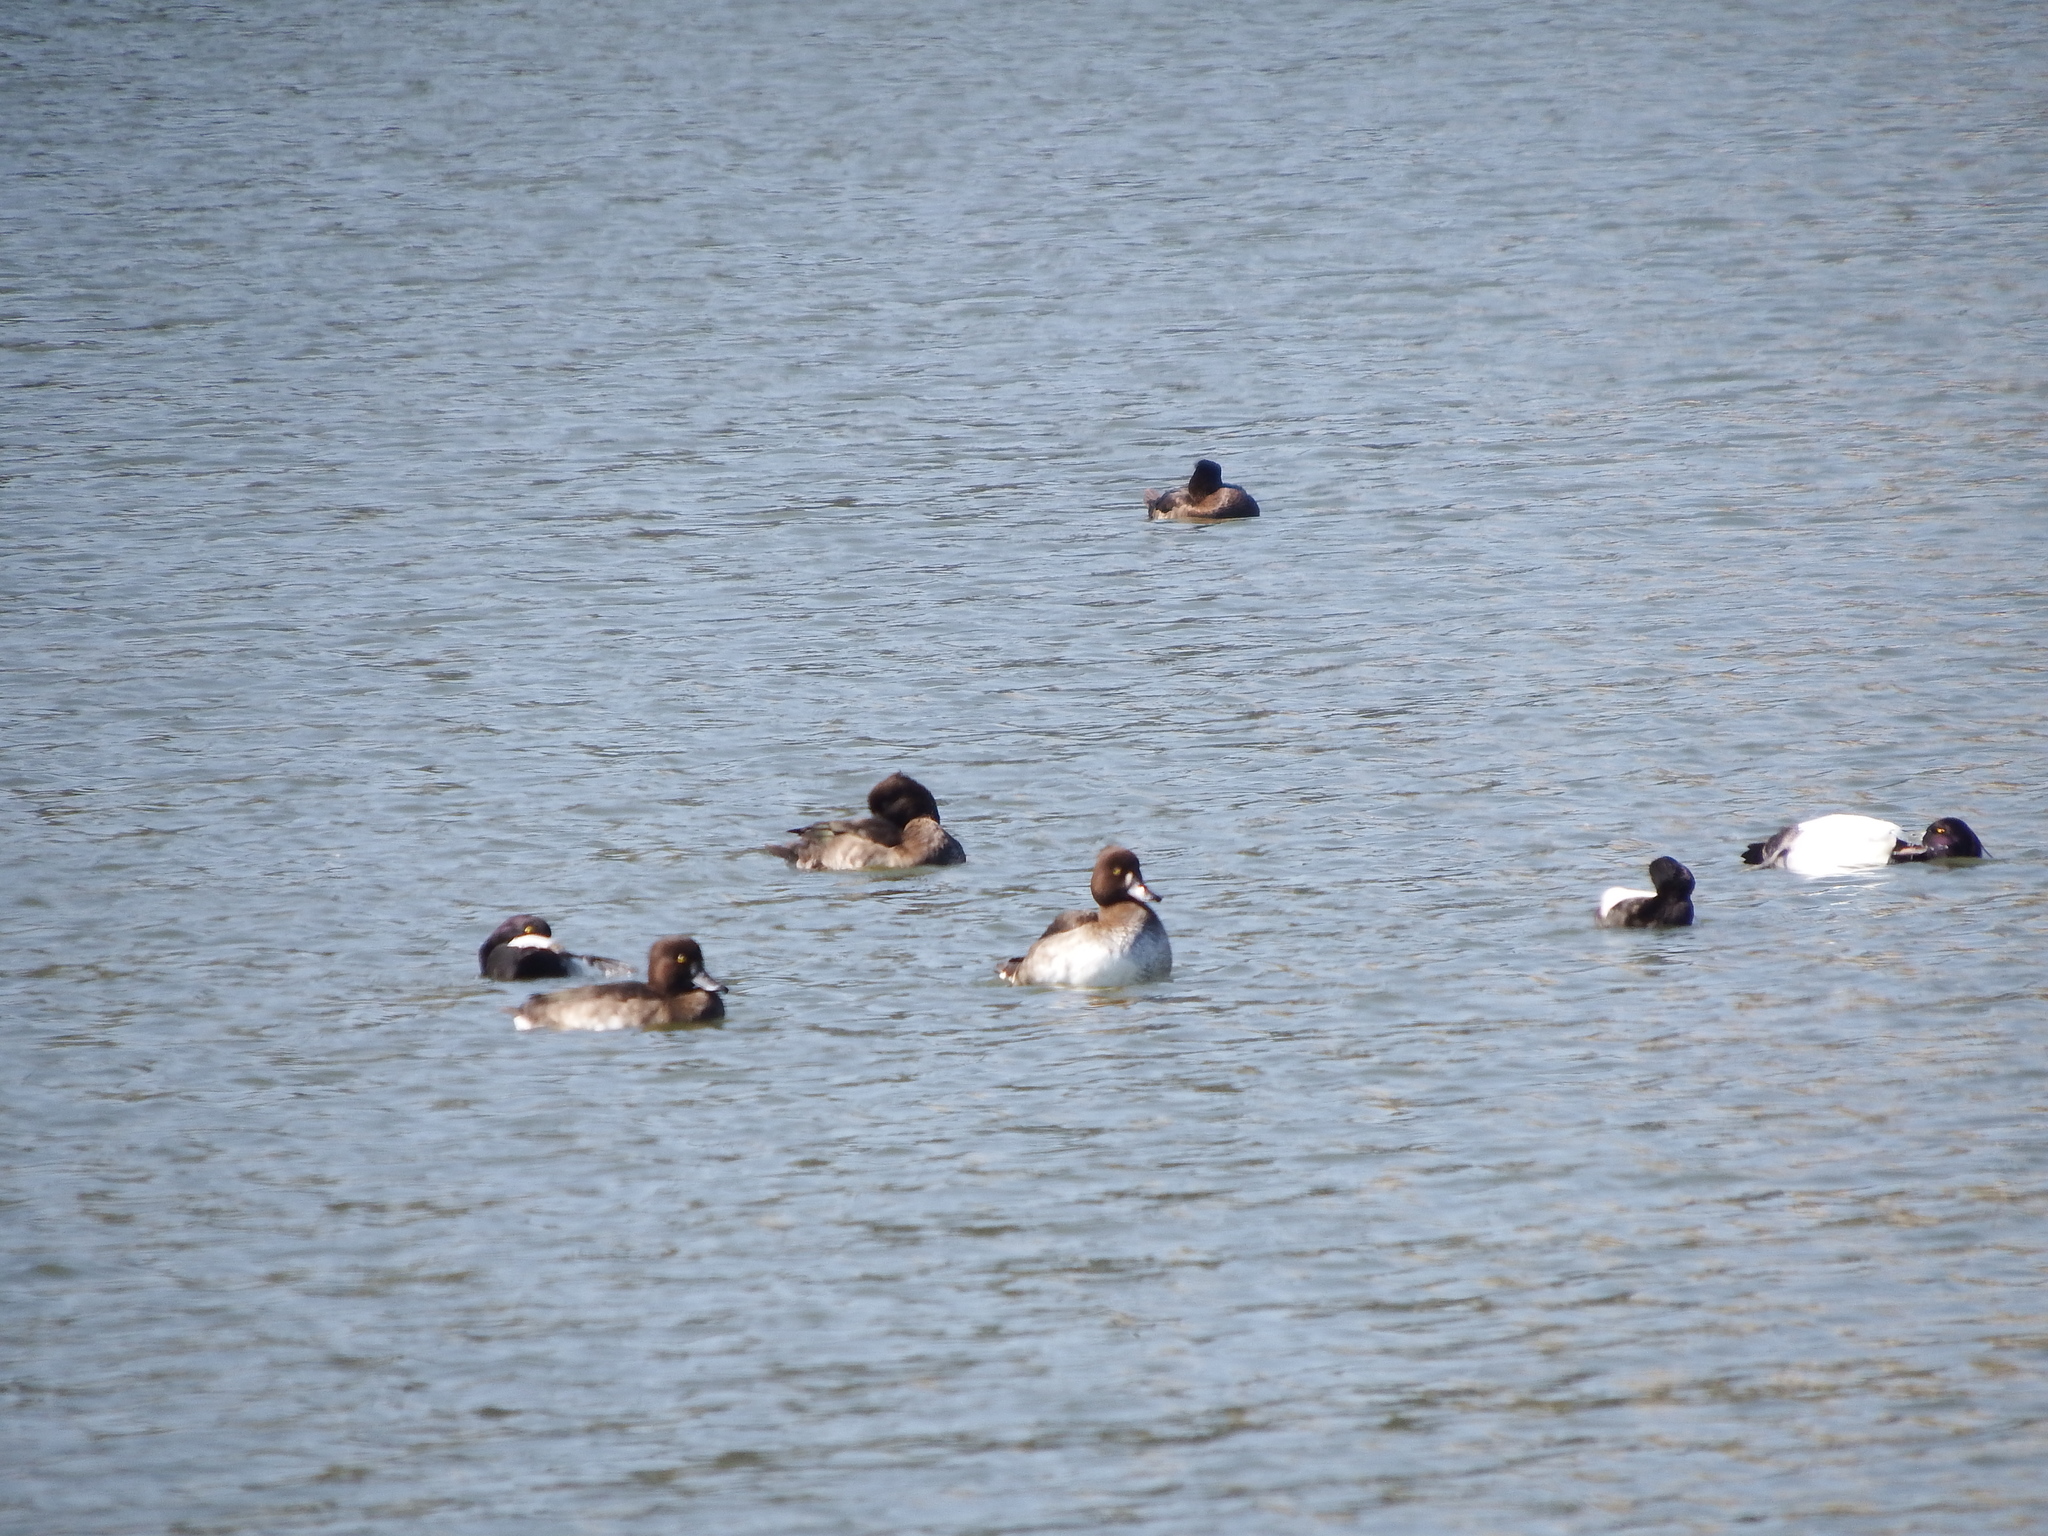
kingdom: Animalia
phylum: Chordata
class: Aves
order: Anseriformes
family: Anatidae
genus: Aythya
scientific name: Aythya fuligula
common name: Tufted duck
